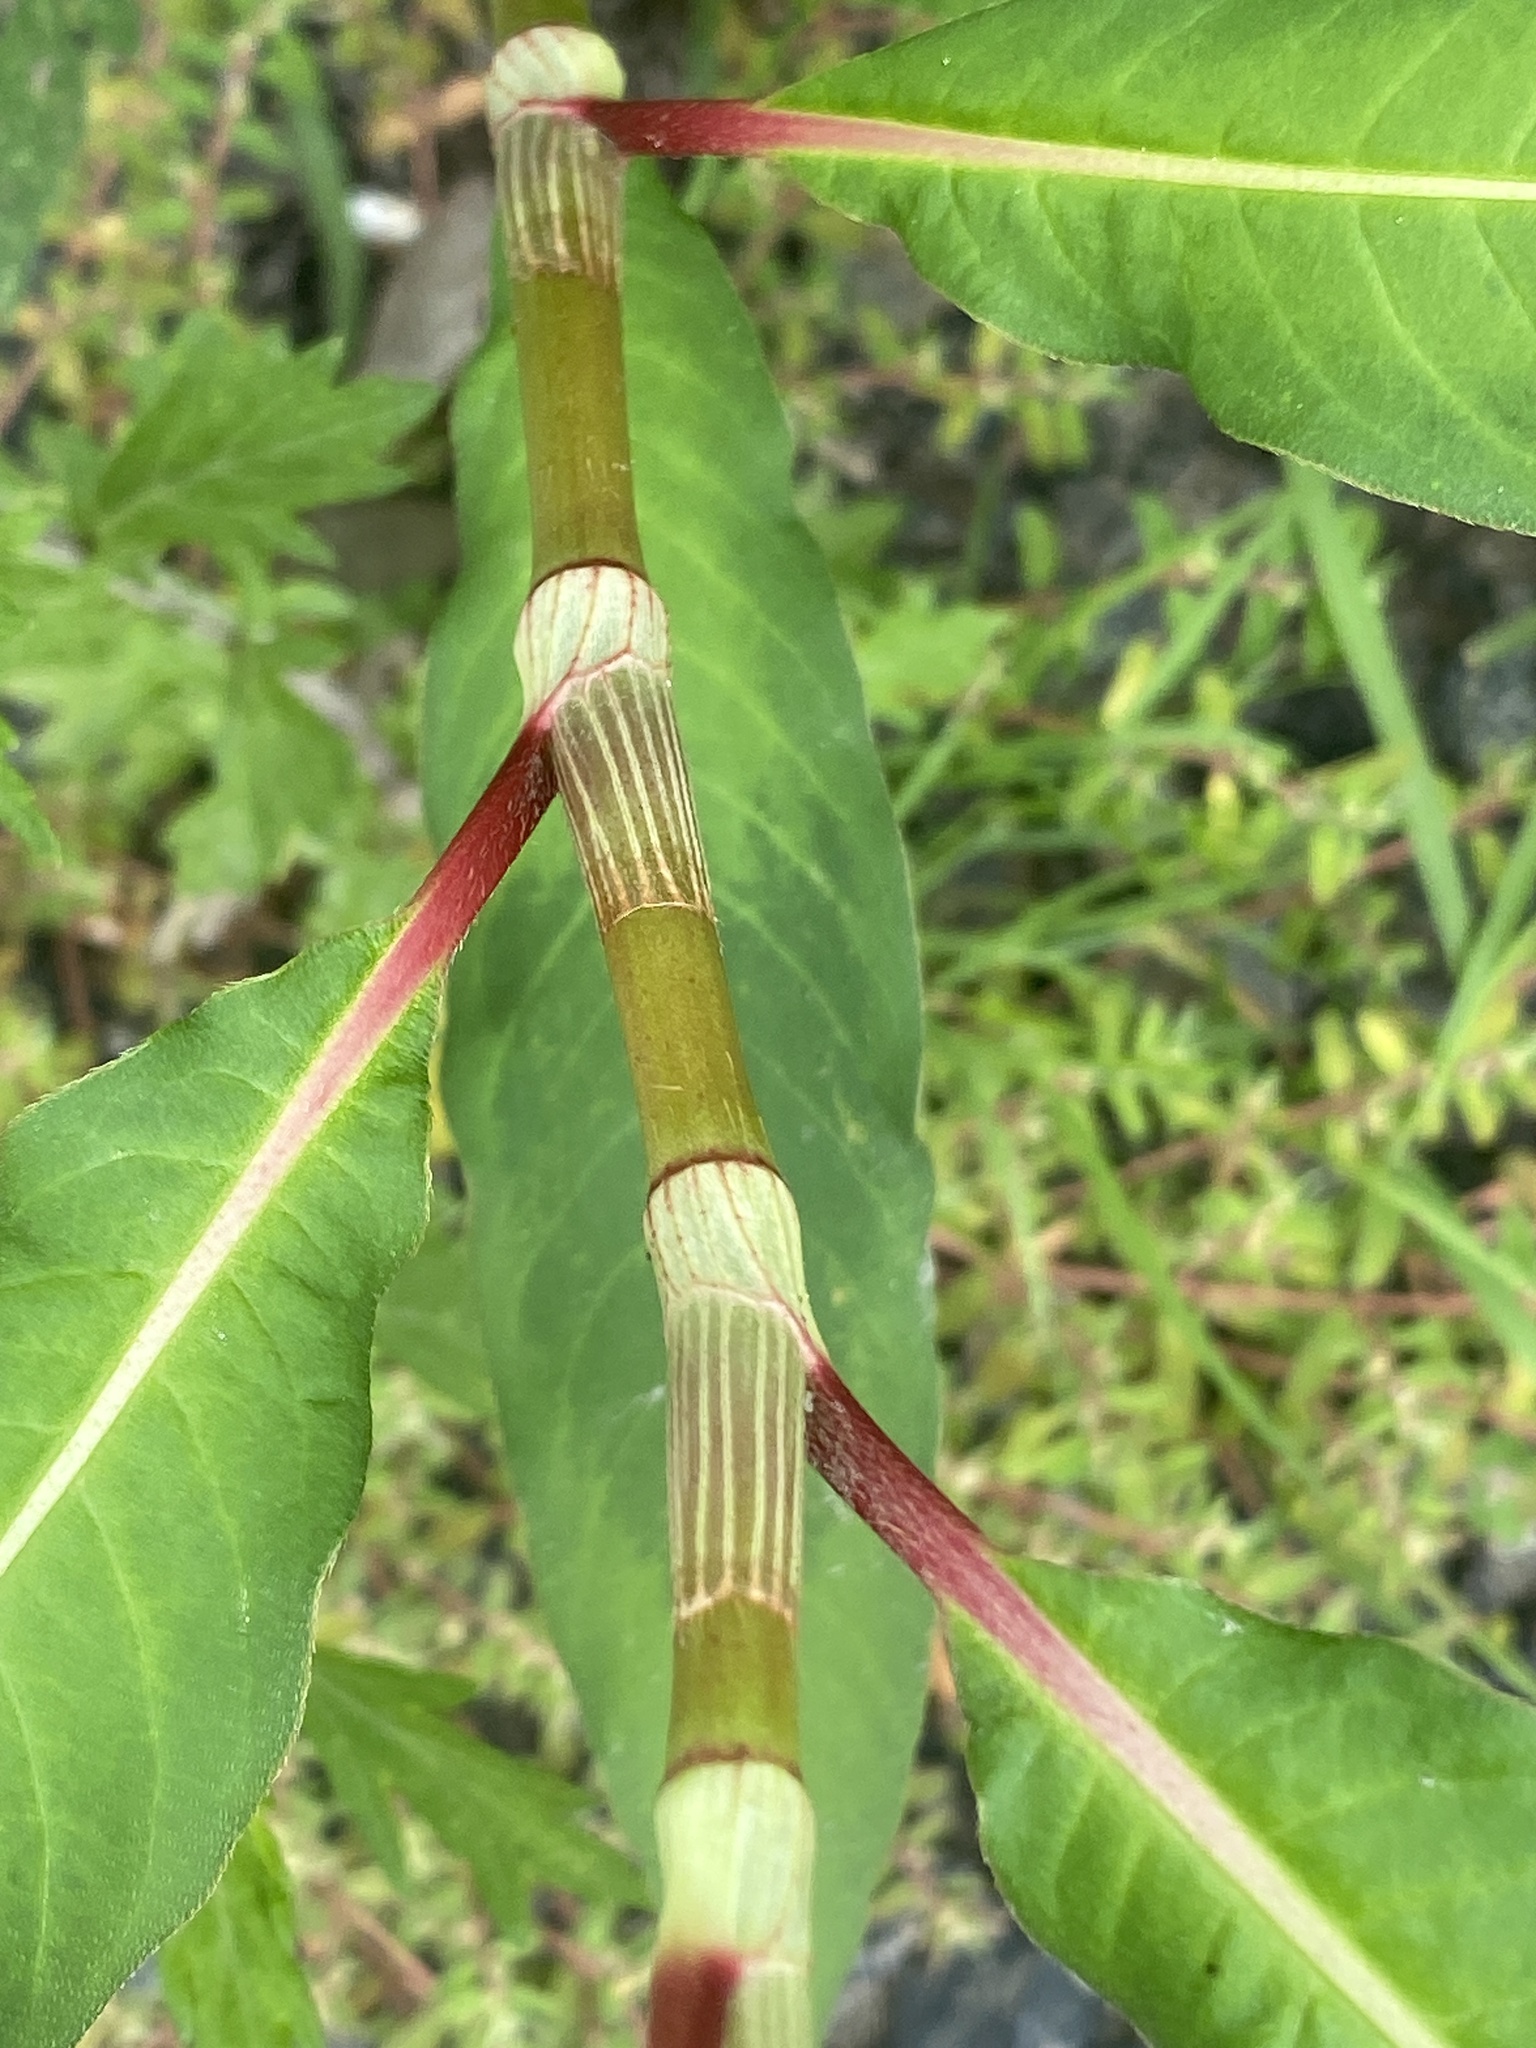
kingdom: Plantae
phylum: Tracheophyta
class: Magnoliopsida
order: Caryophyllales
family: Polygonaceae
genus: Persicaria
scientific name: Persicaria extremiorientalis
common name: Far-eastern smartweed
